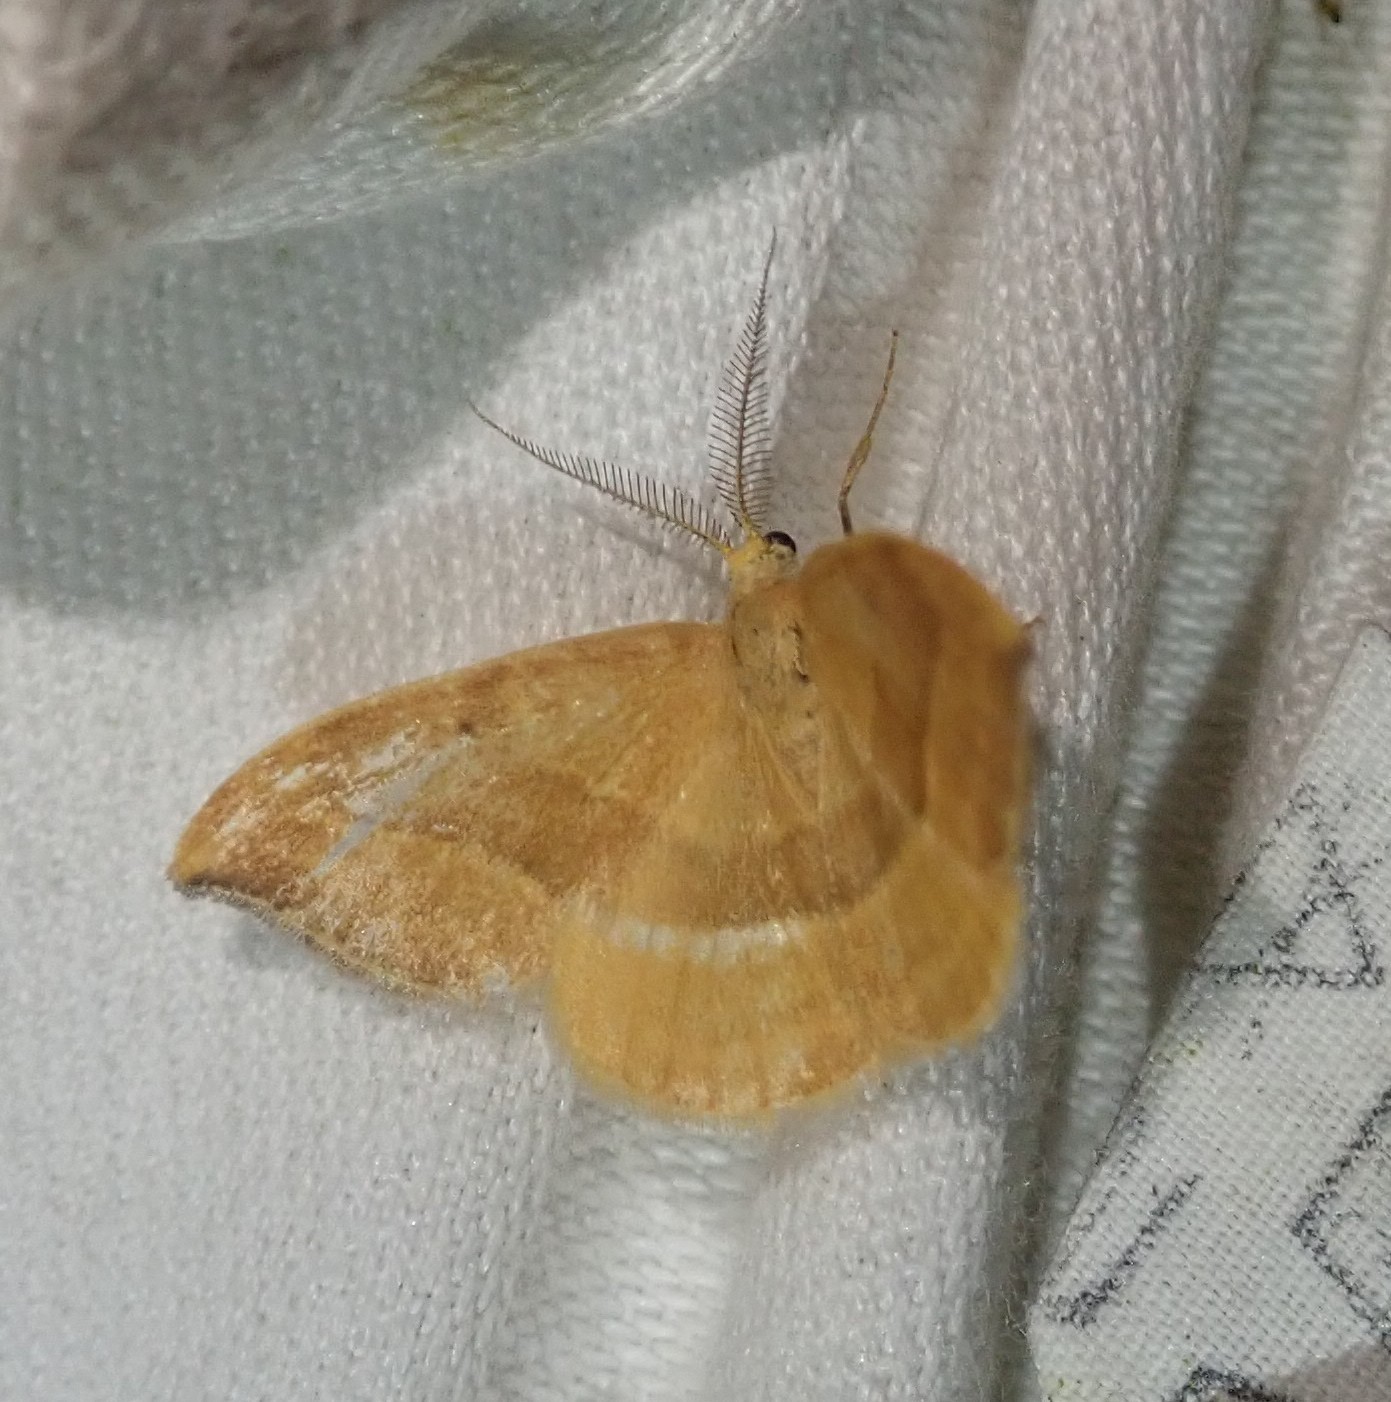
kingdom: Animalia
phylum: Arthropoda
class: Insecta
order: Lepidoptera
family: Drepanidae
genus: Watsonalla
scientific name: Watsonalla cultraria
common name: Barred hook-tip
